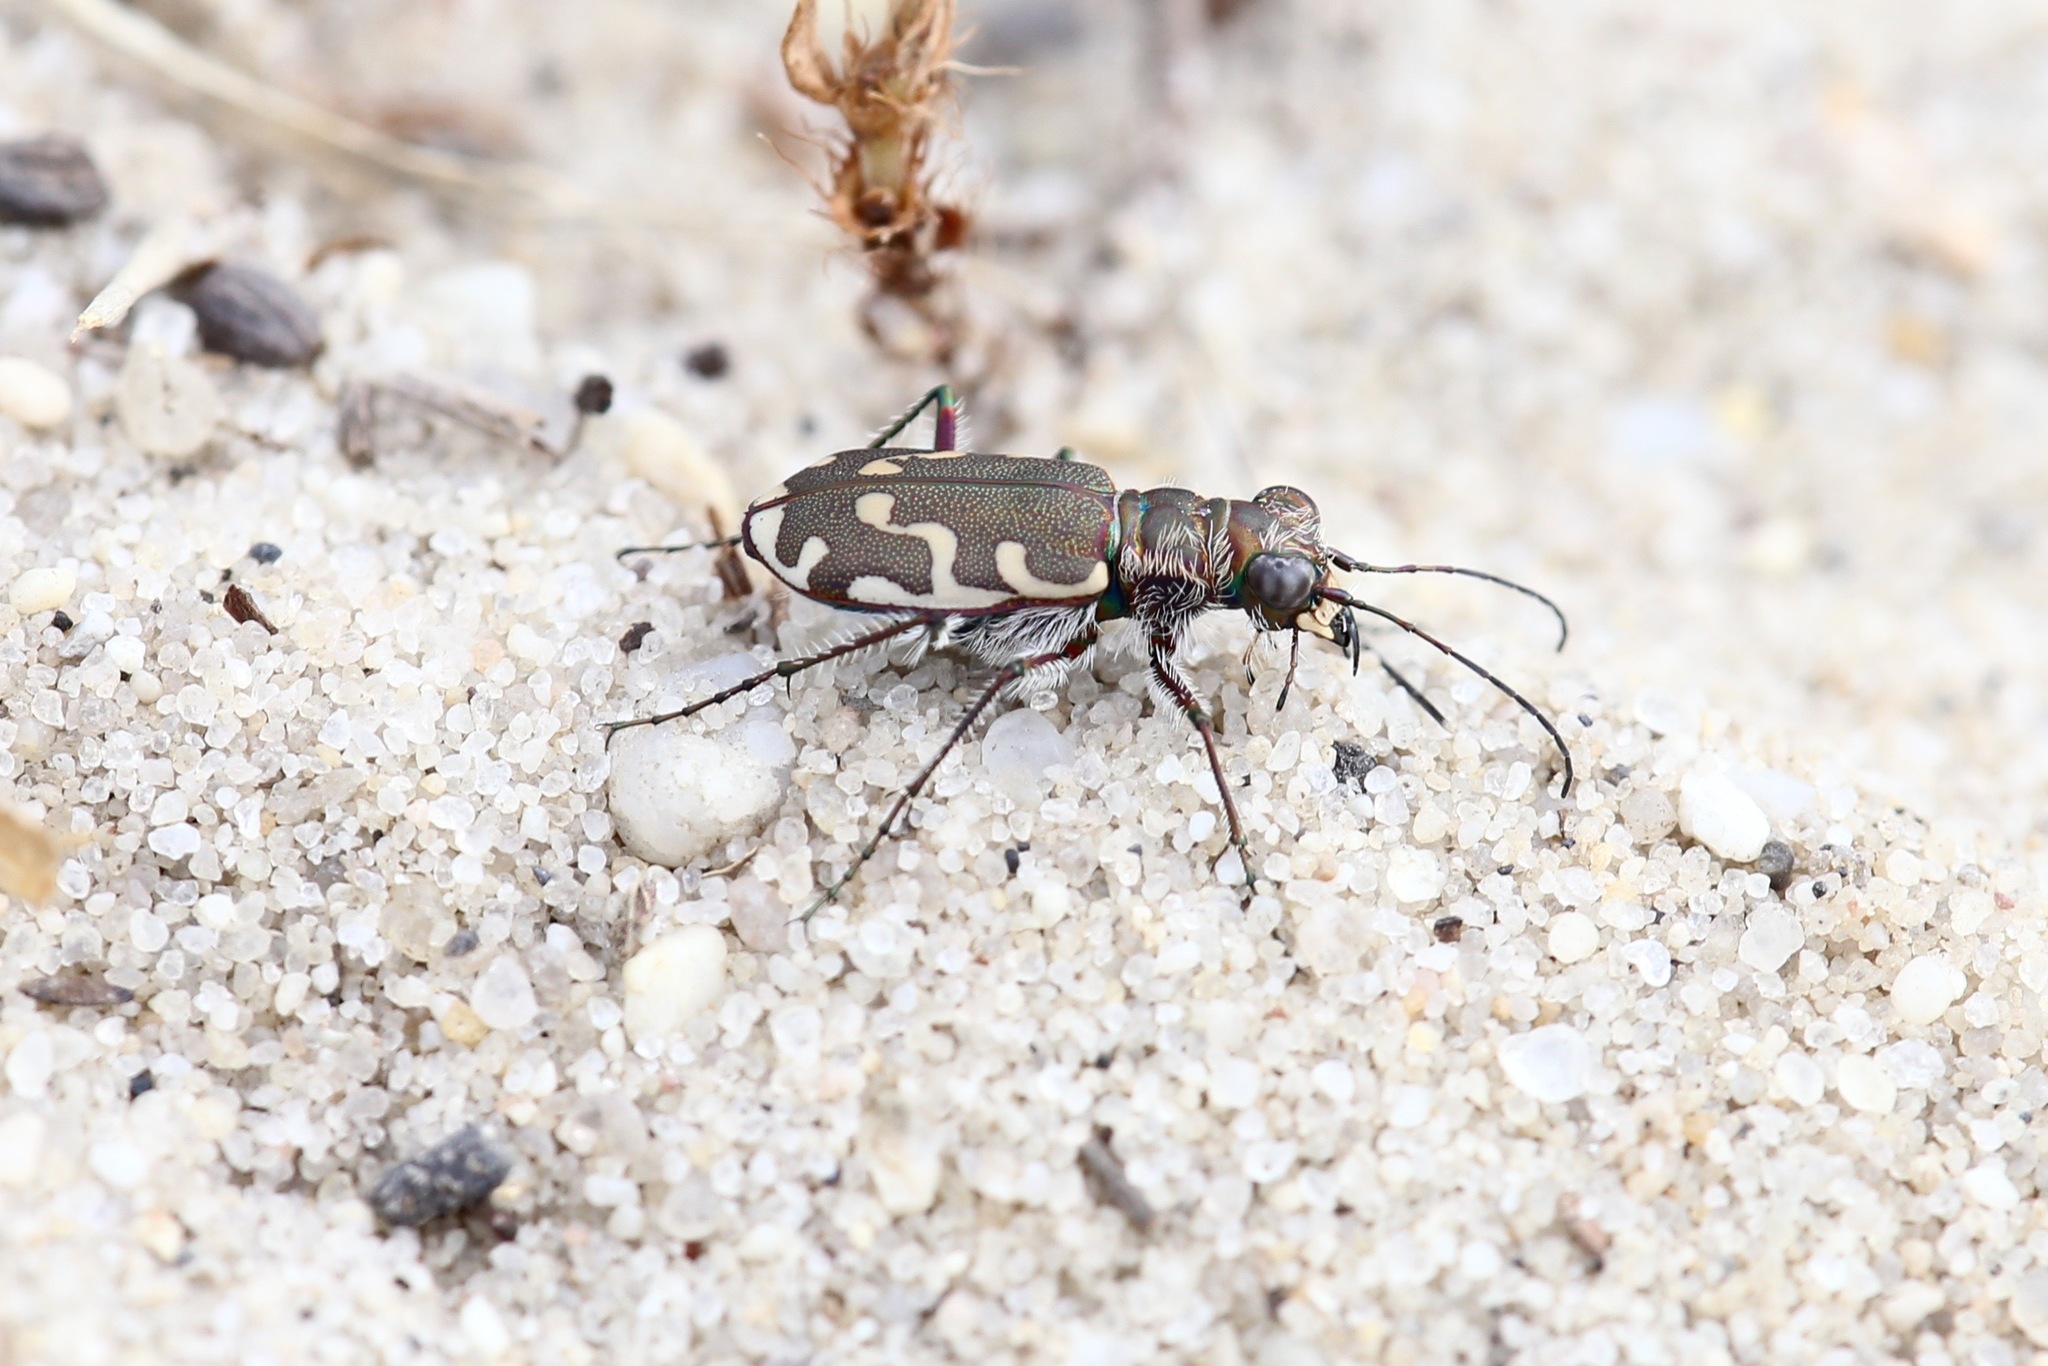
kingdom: Animalia
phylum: Arthropoda
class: Insecta
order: Coleoptera
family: Carabidae
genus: Cicindela
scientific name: Cicindela repanda
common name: Bronzed tiger beetle
